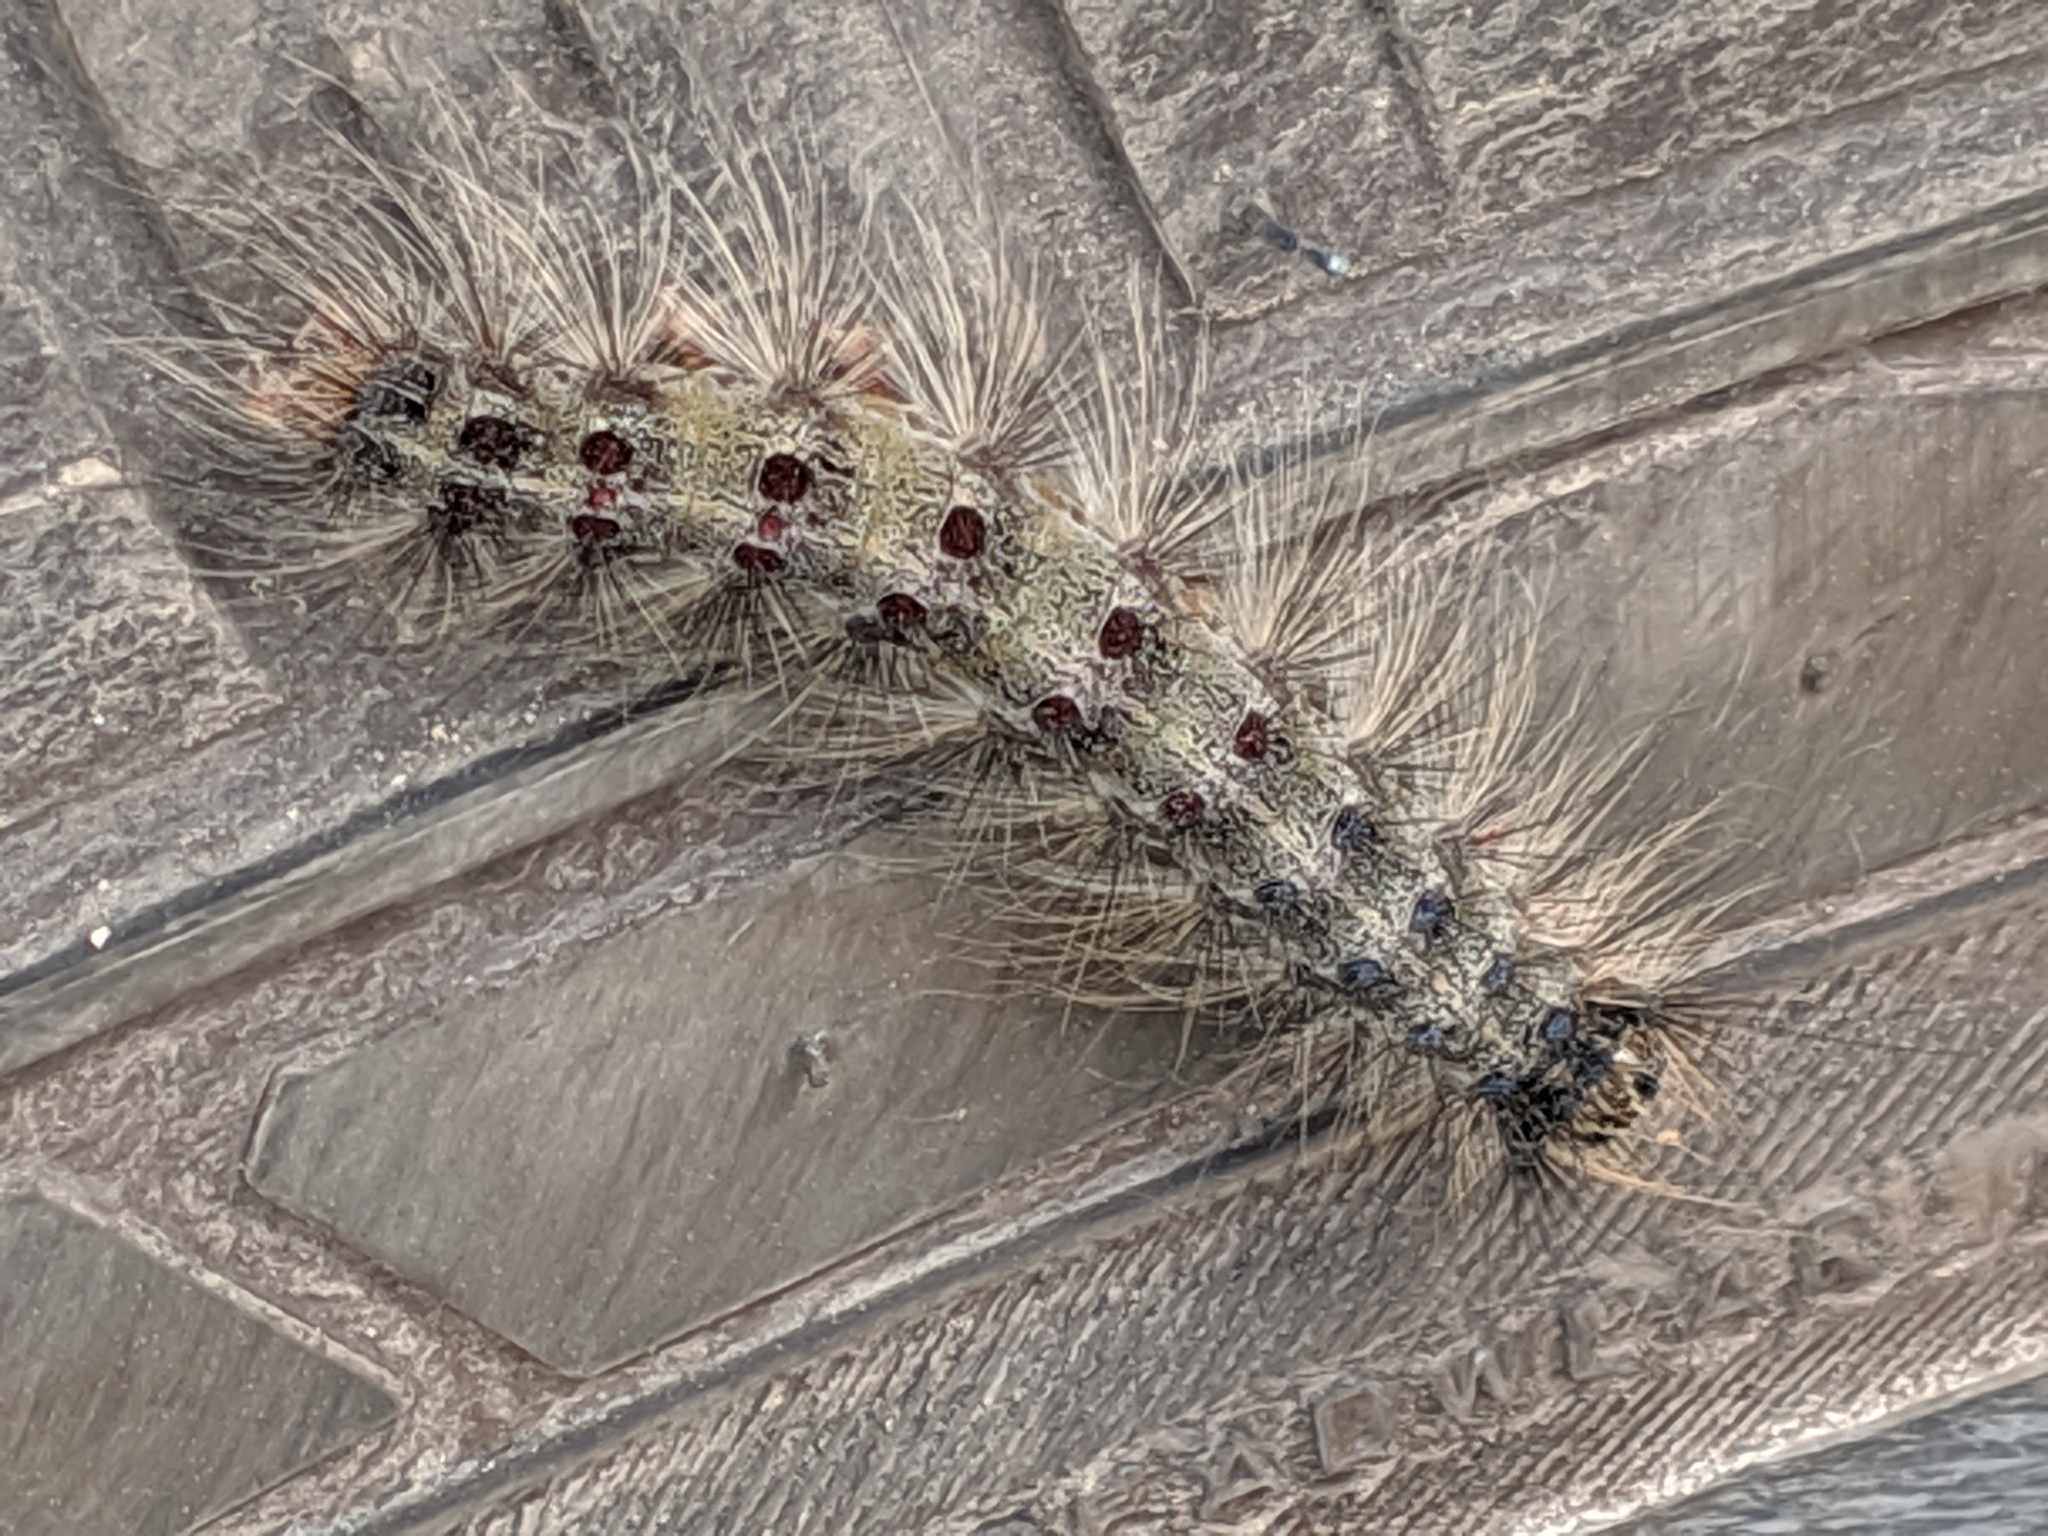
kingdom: Animalia
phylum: Arthropoda
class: Insecta
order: Lepidoptera
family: Erebidae
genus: Lymantria
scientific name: Lymantria dispar
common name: Gypsy moth
